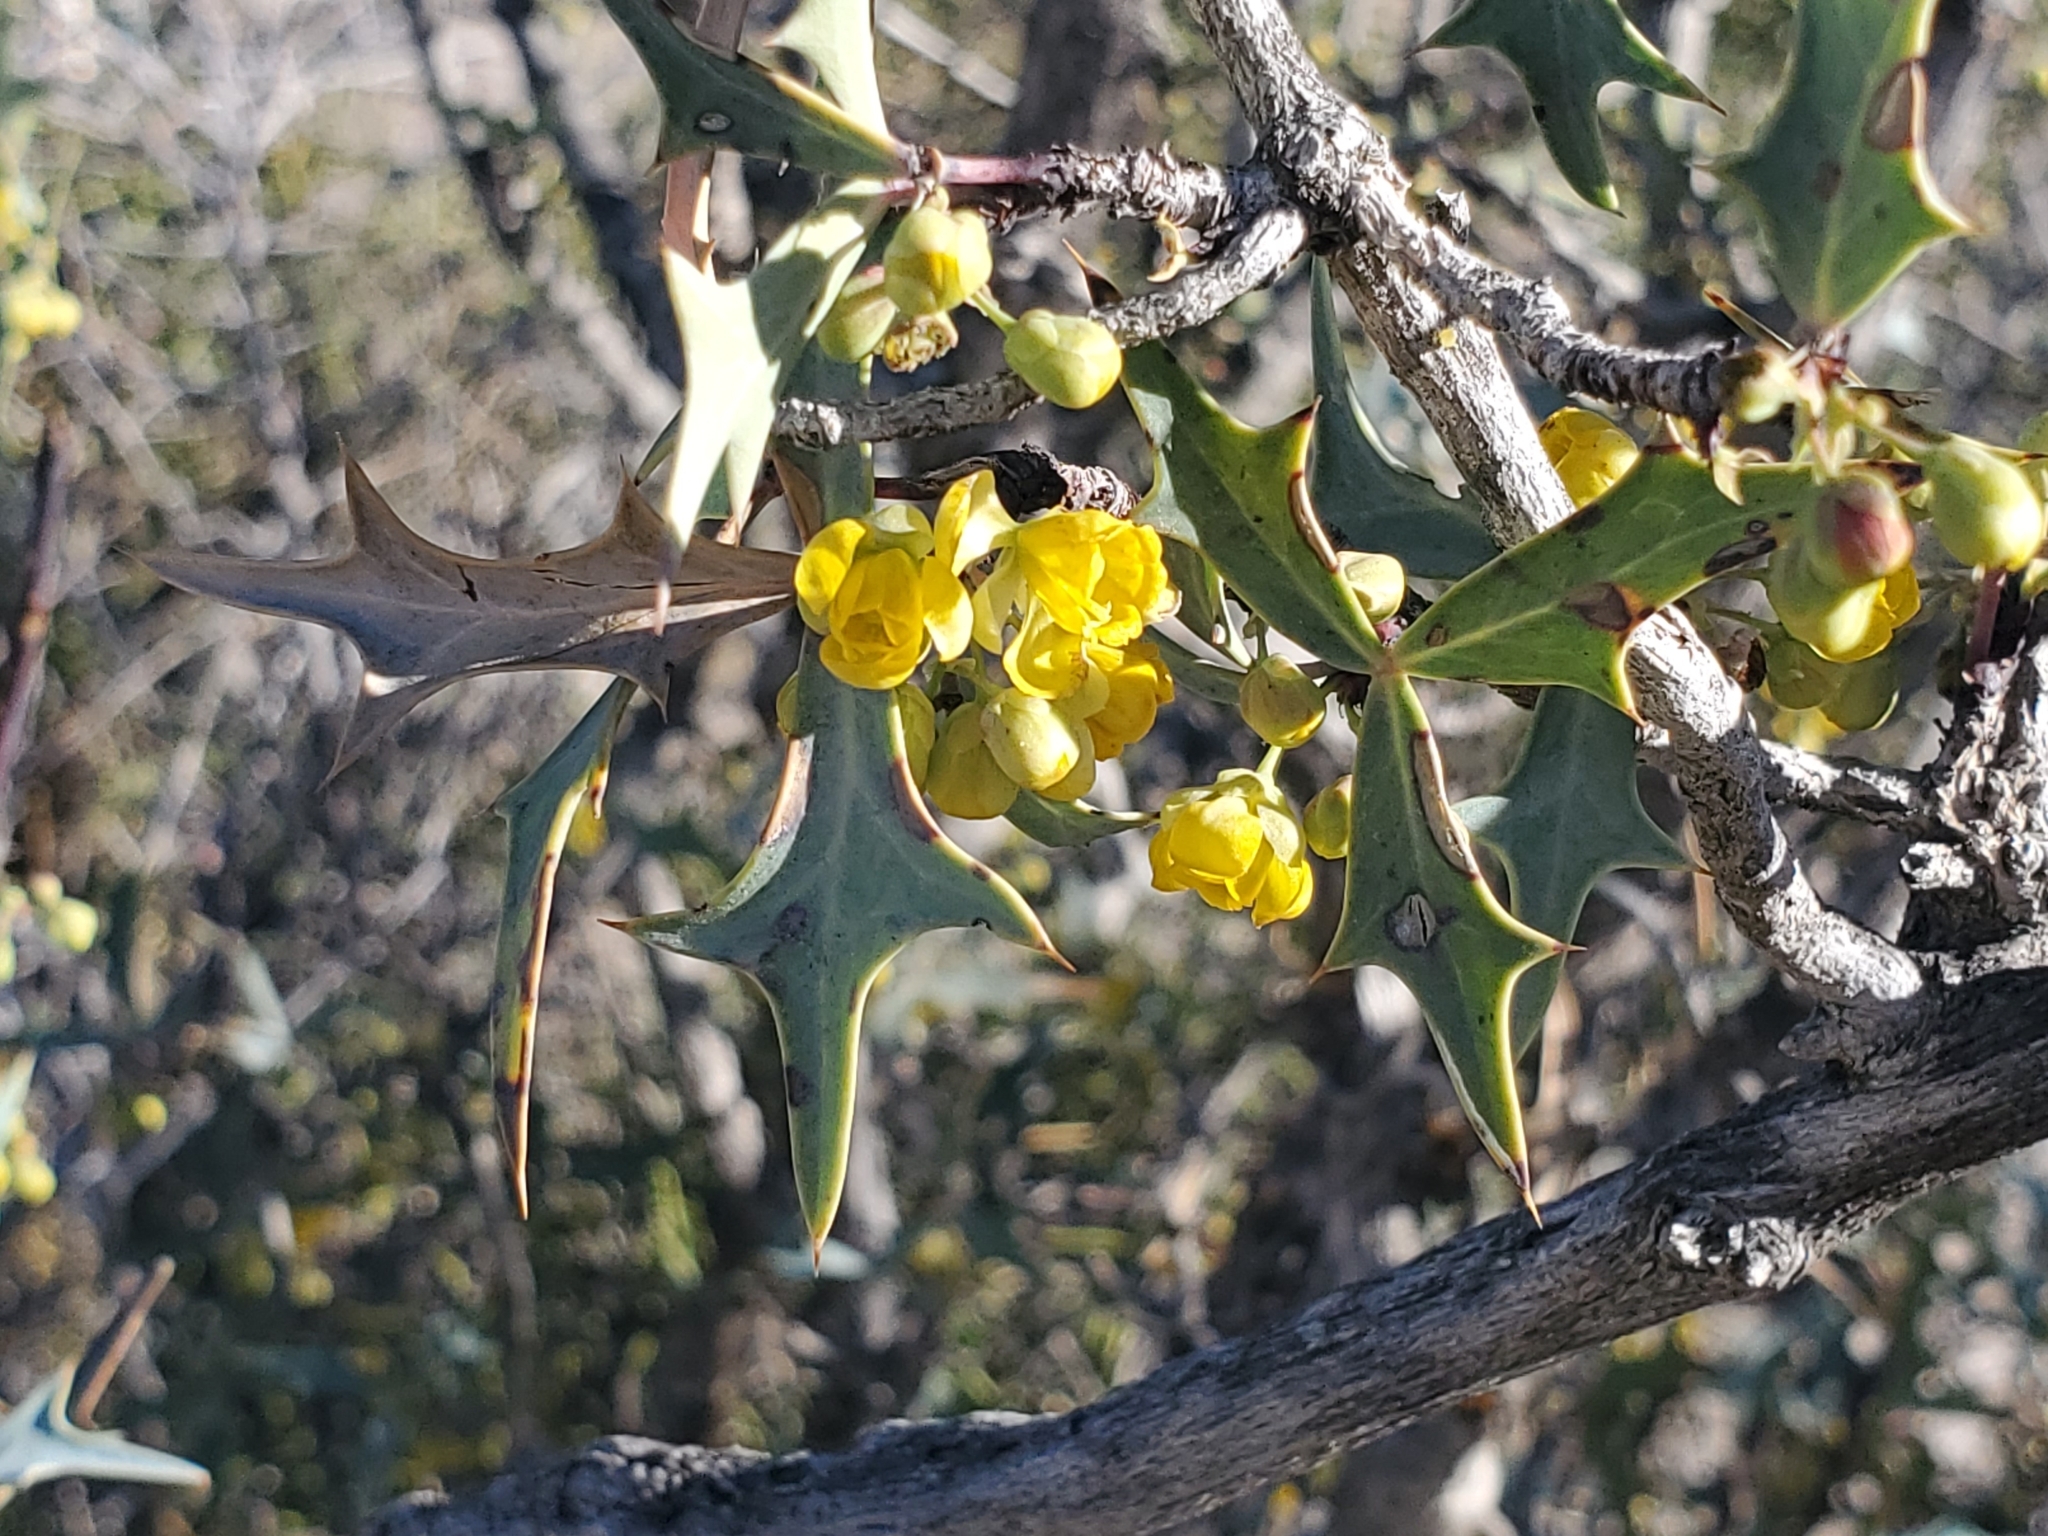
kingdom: Plantae
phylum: Tracheophyta
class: Magnoliopsida
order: Ranunculales
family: Berberidaceae
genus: Alloberberis
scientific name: Alloberberis trifoliolata
